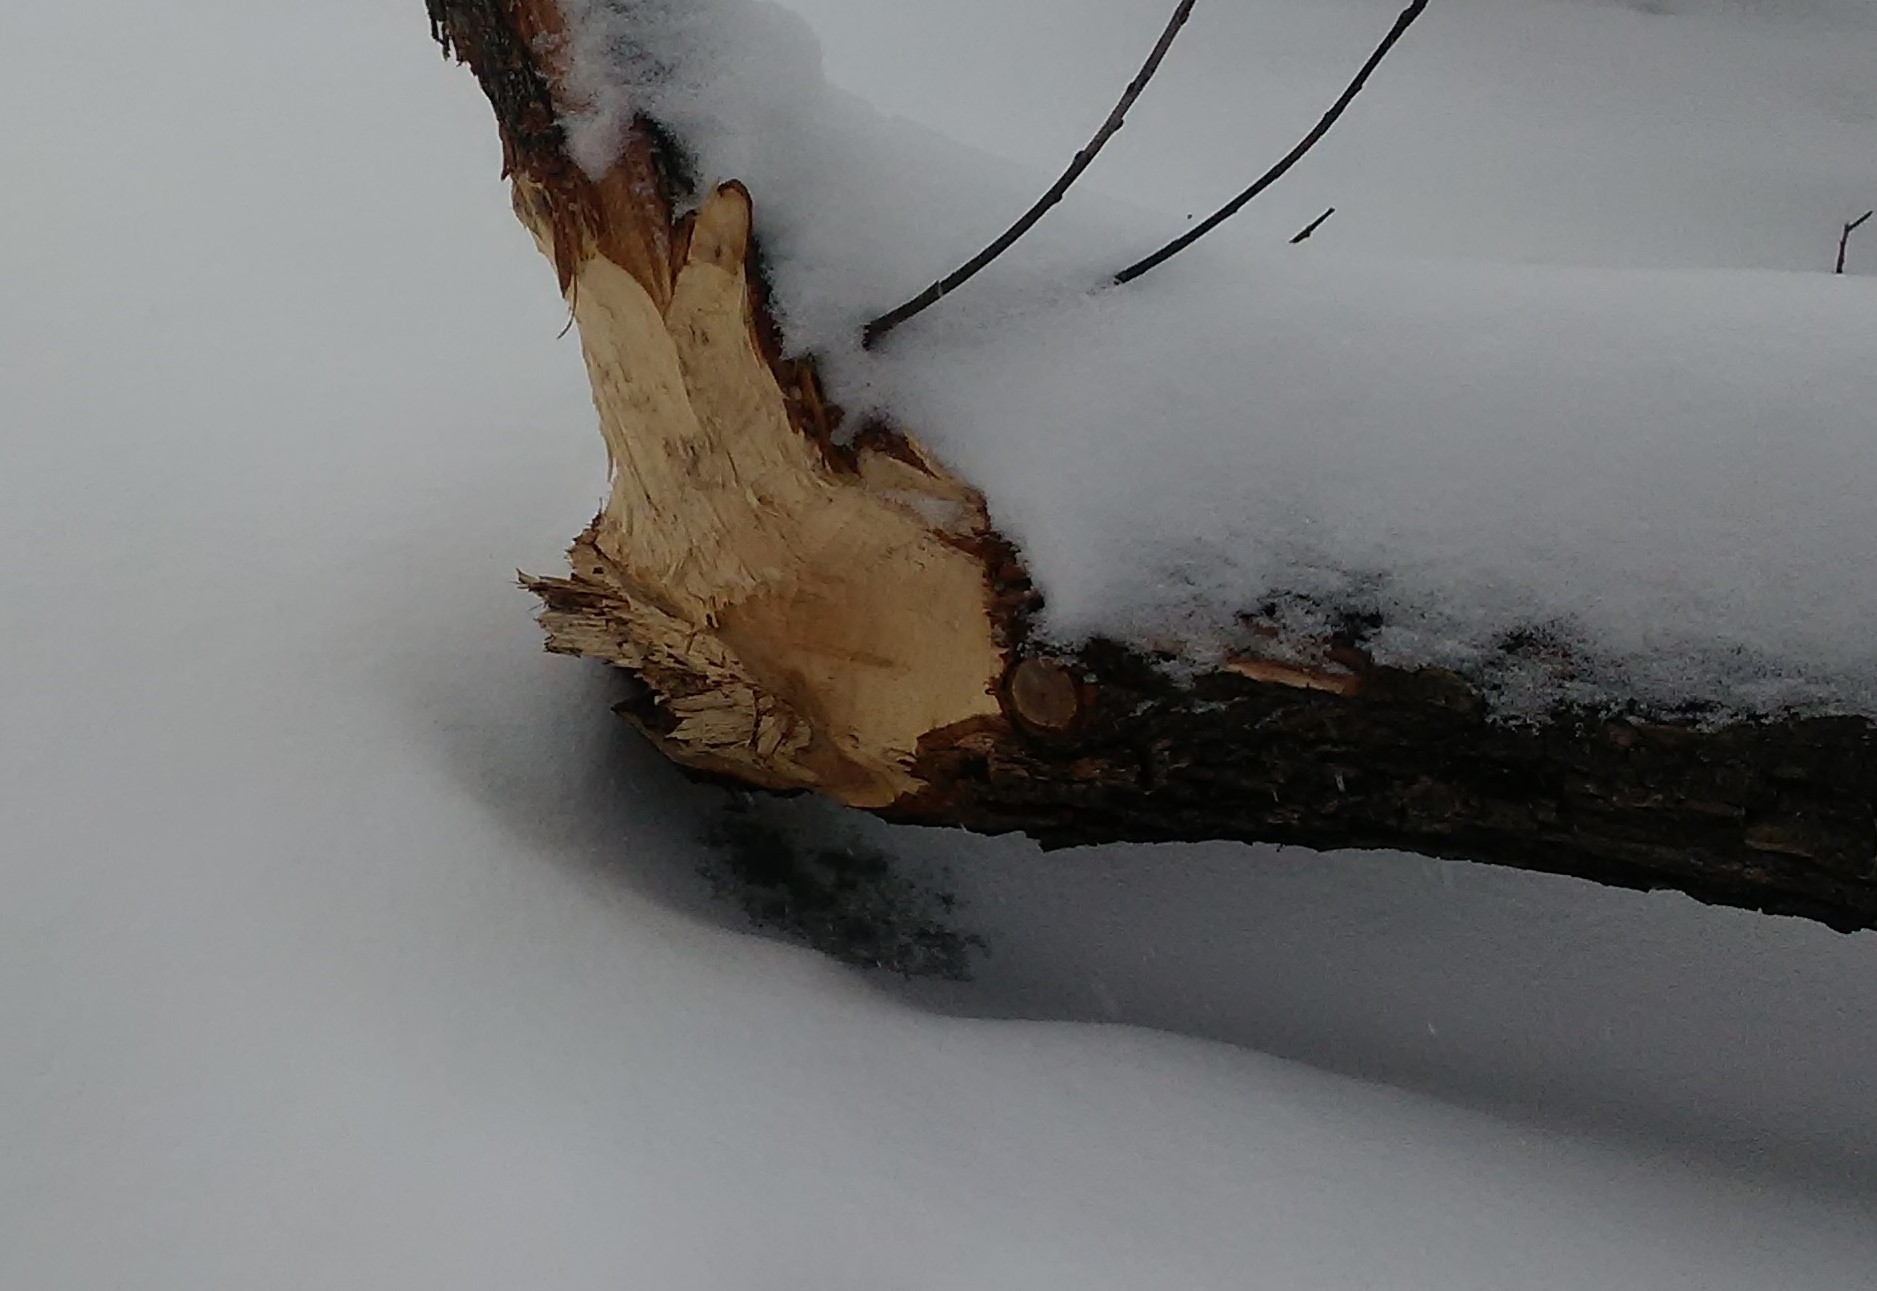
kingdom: Animalia
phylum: Chordata
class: Mammalia
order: Rodentia
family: Castoridae
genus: Castor
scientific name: Castor fiber
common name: Eurasian beaver
